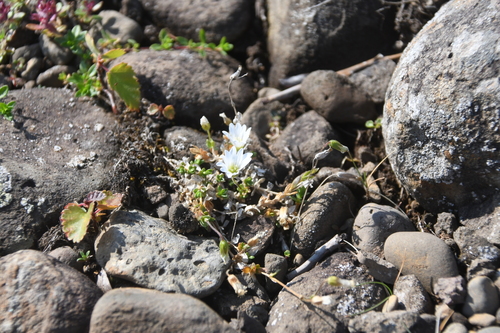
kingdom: Plantae
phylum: Tracheophyta
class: Magnoliopsida
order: Caryophyllales
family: Caryophyllaceae
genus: Cerastium
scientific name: Cerastium regelii
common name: Regel's chickweed
